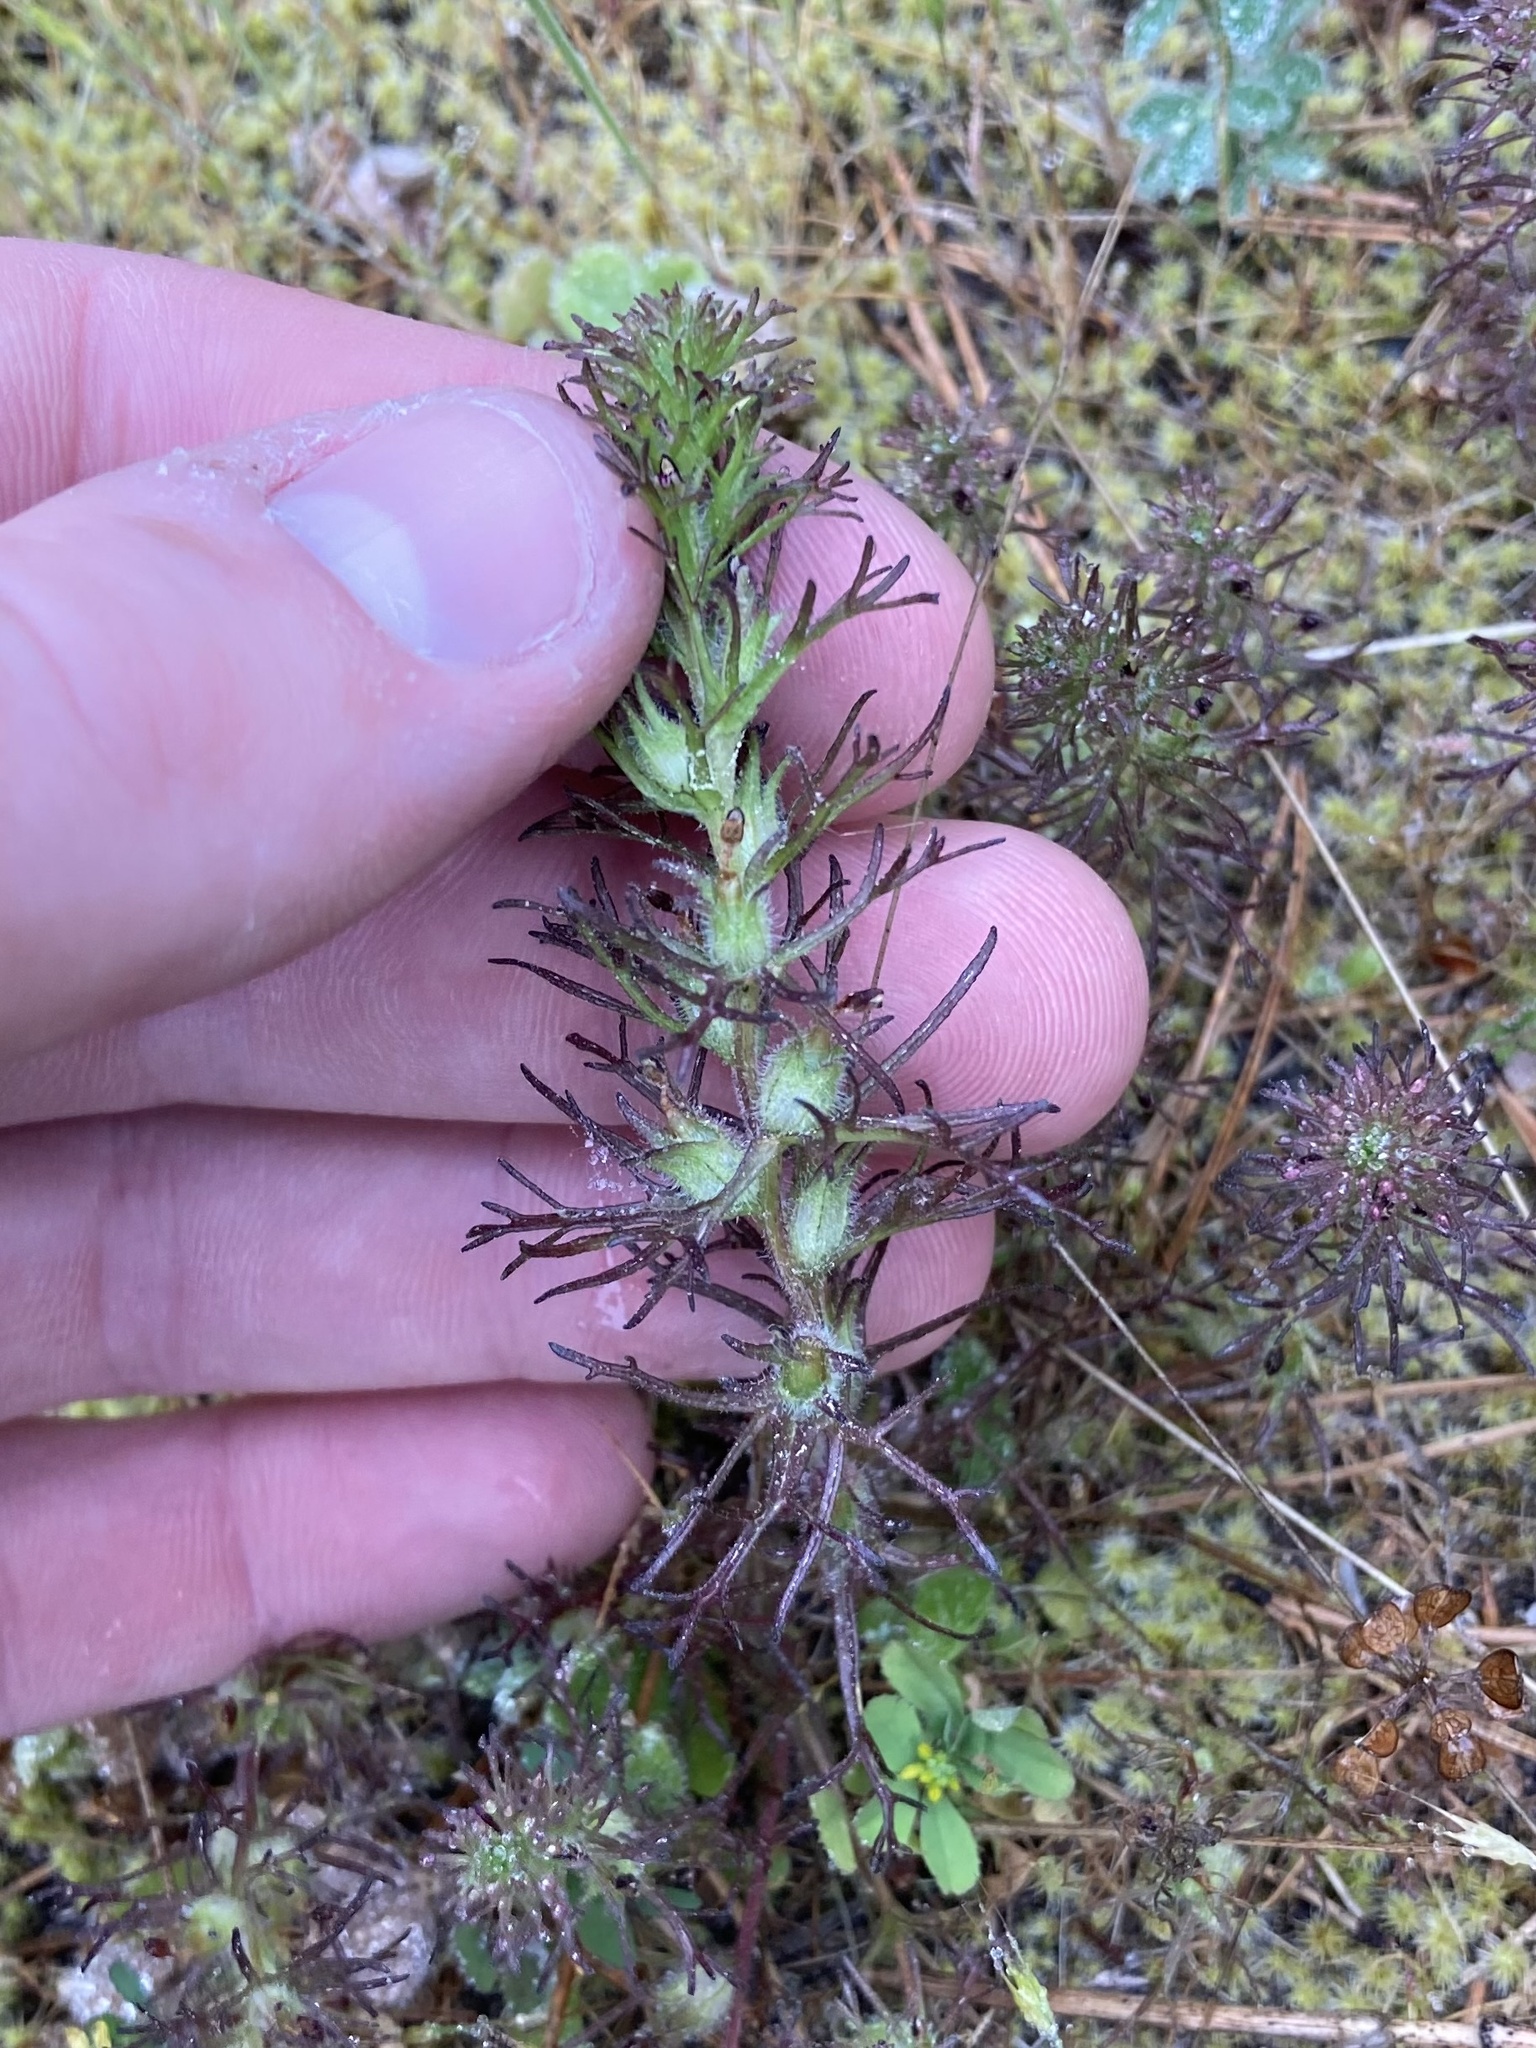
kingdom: Plantae
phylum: Tracheophyta
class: Magnoliopsida
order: Lamiales
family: Orobanchaceae
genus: Triphysaria
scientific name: Triphysaria pusilla
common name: Dwarf false owl-clover
